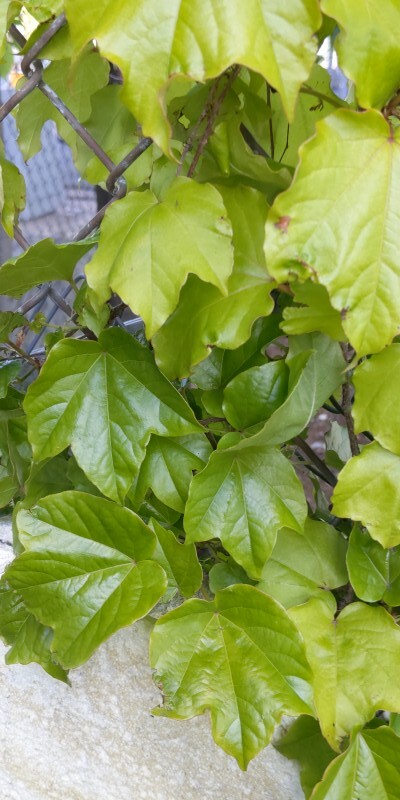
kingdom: Plantae
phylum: Tracheophyta
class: Magnoliopsida
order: Vitales
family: Vitaceae
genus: Parthenocissus
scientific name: Parthenocissus tricuspidata
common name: Boston ivy
